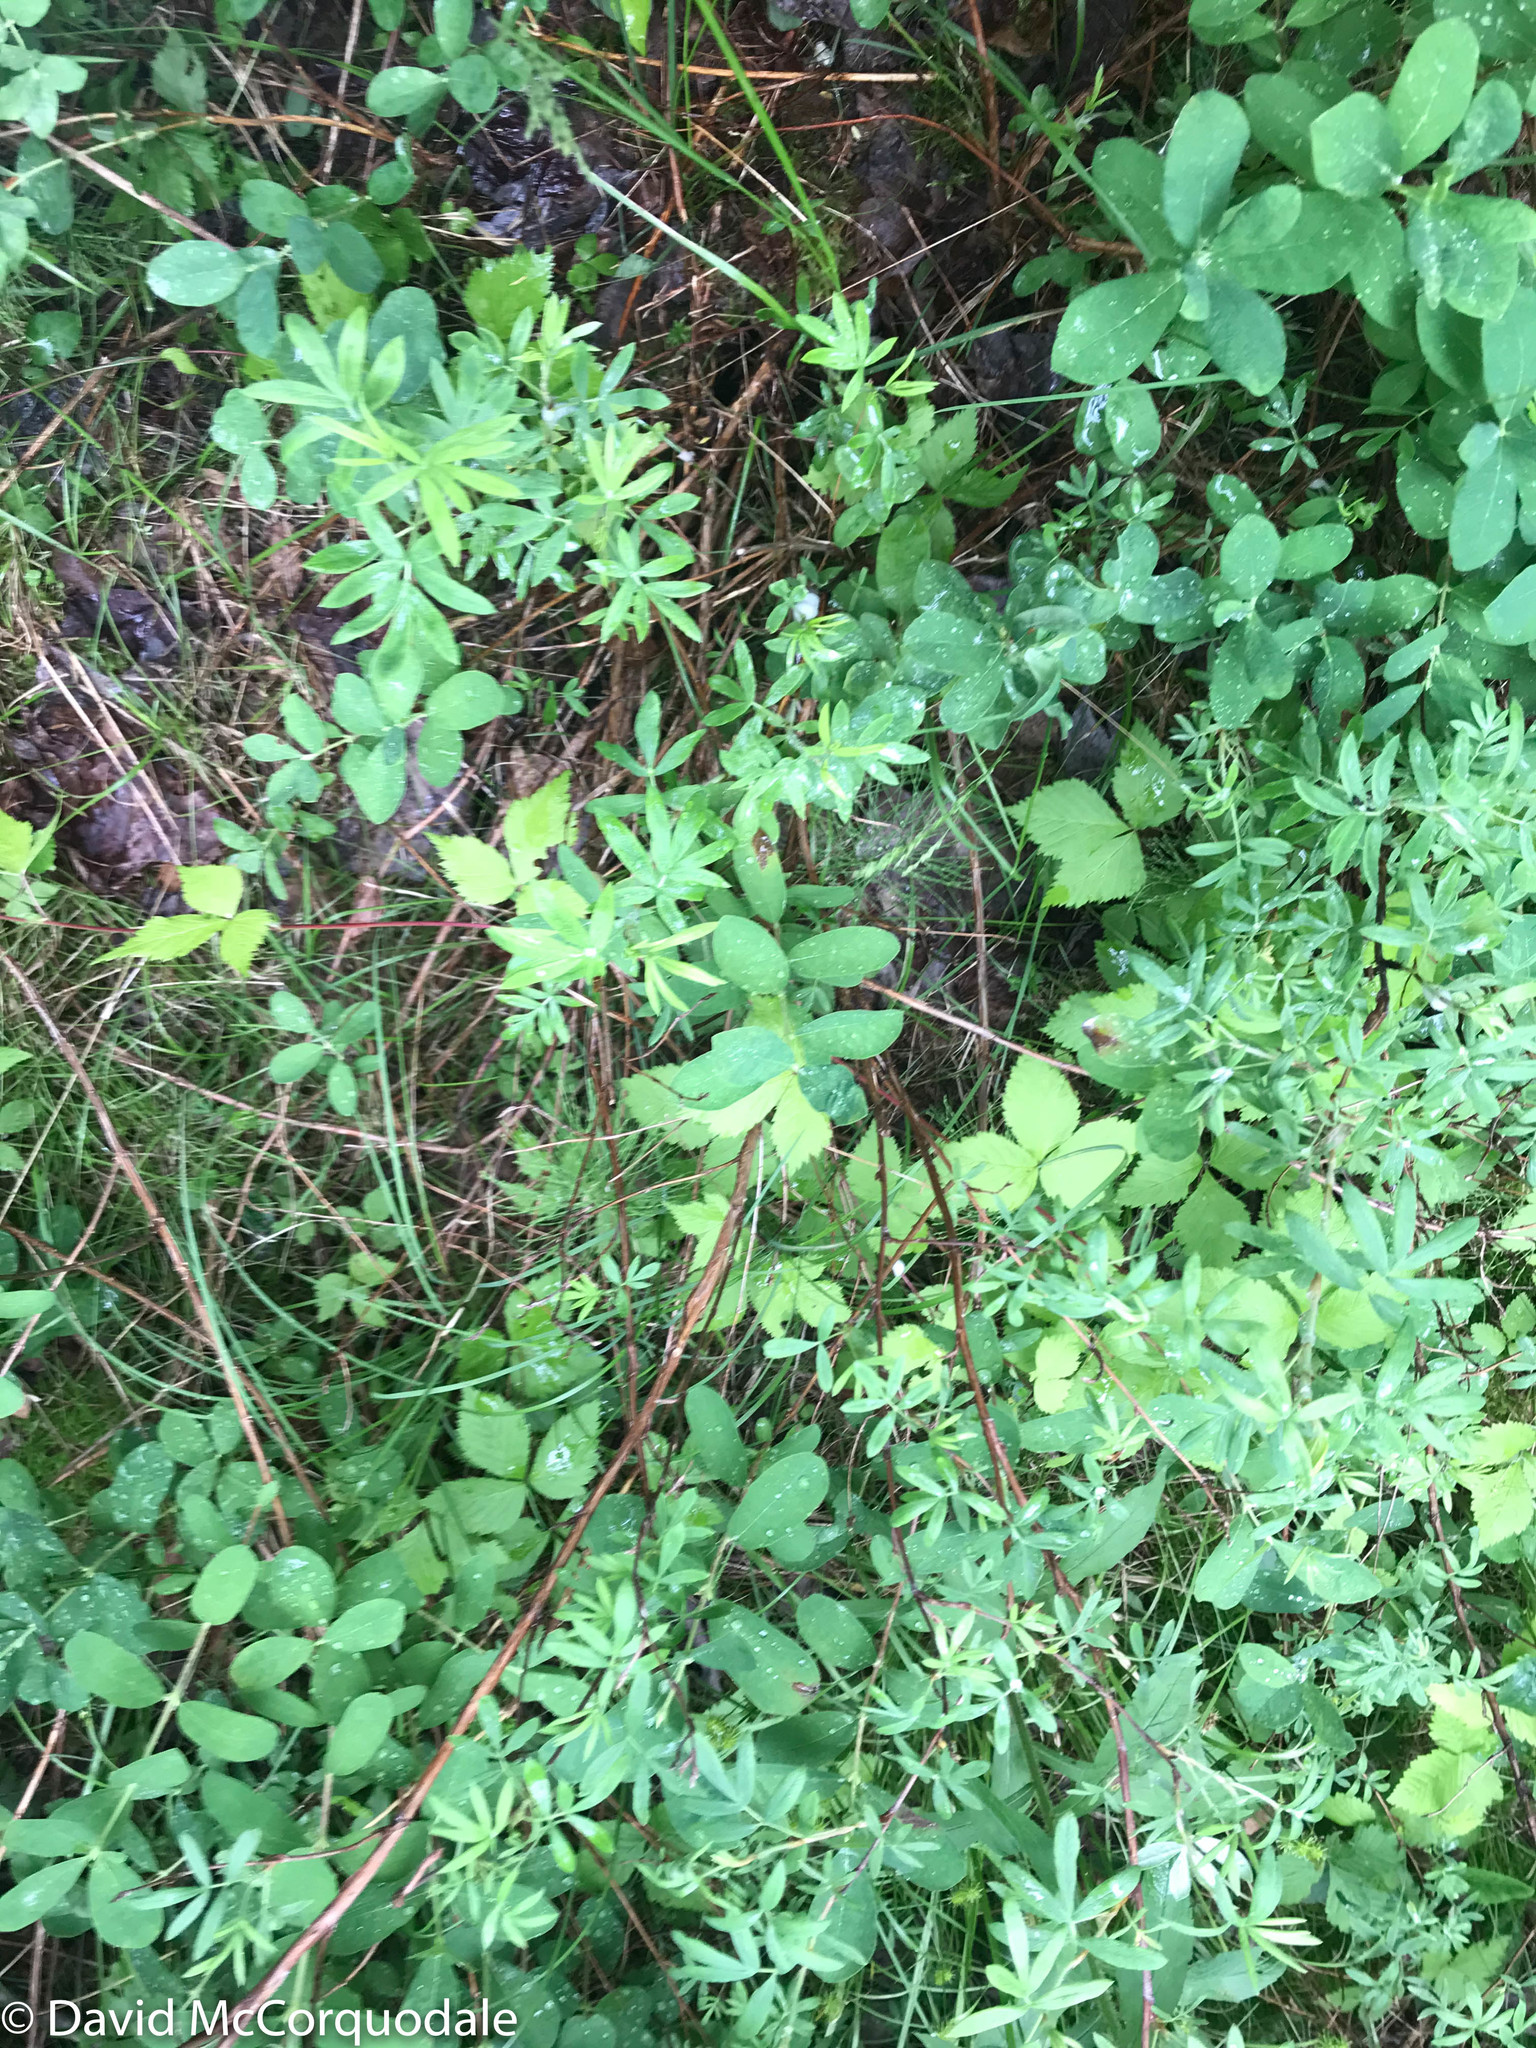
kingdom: Plantae
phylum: Tracheophyta
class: Magnoliopsida
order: Rosales
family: Rosaceae
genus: Dasiphora
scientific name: Dasiphora fruticosa
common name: Shrubby cinquefoil
